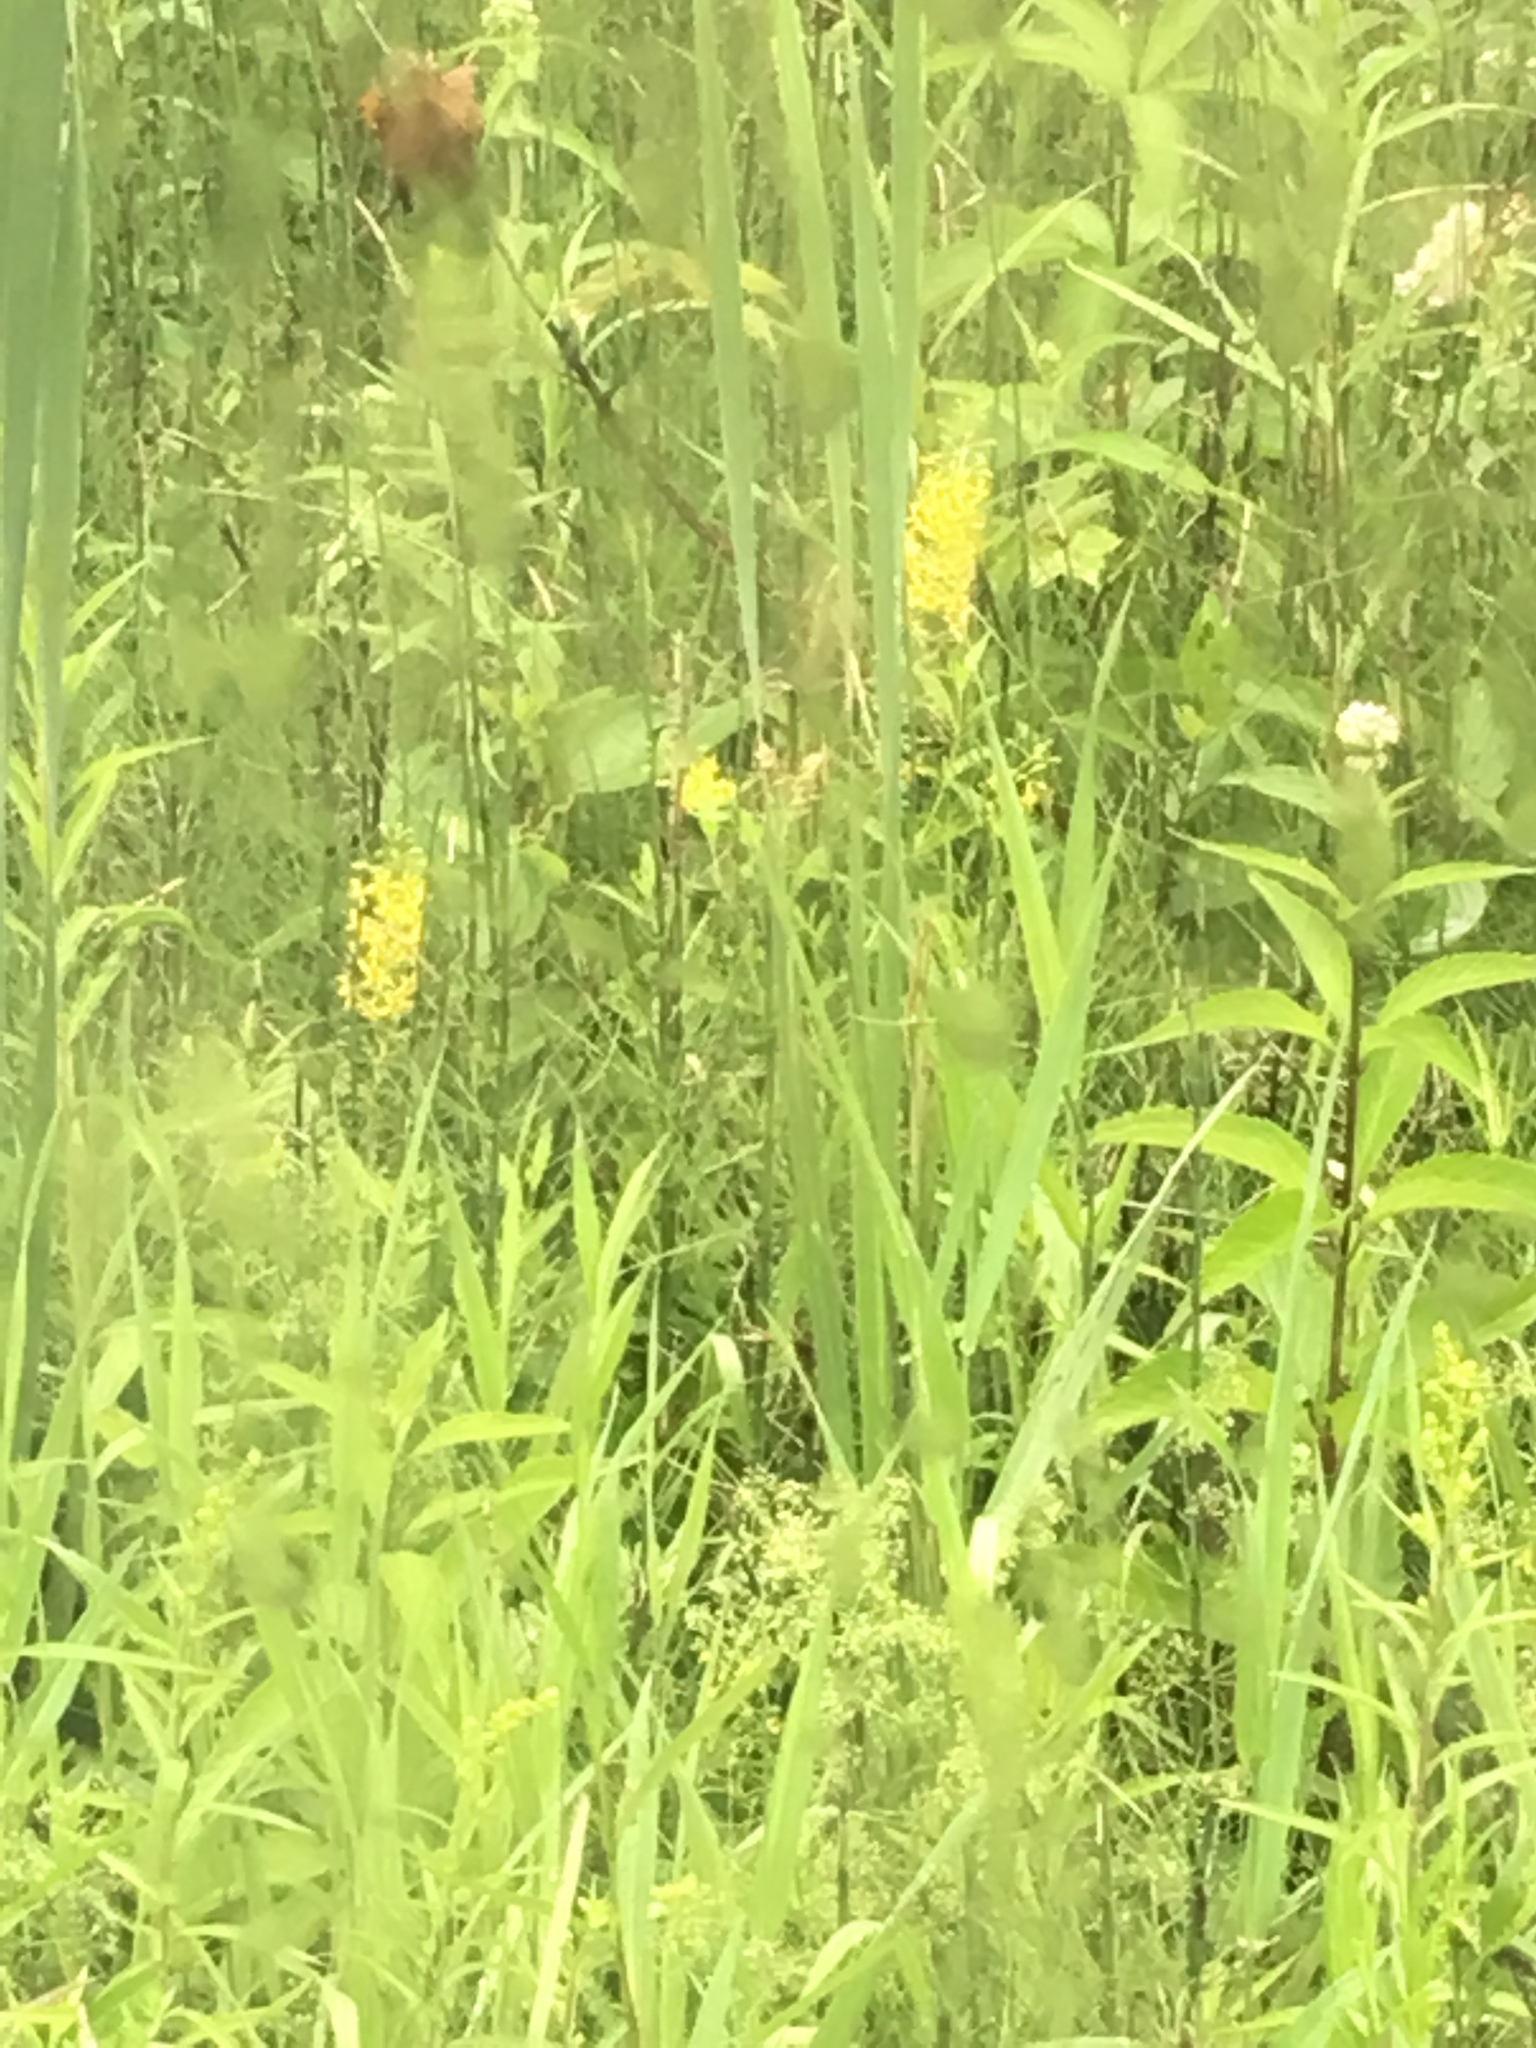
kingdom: Plantae
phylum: Tracheophyta
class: Magnoliopsida
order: Ericales
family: Primulaceae
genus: Lysimachia
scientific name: Lysimachia terrestris
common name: Lake loosestrife
